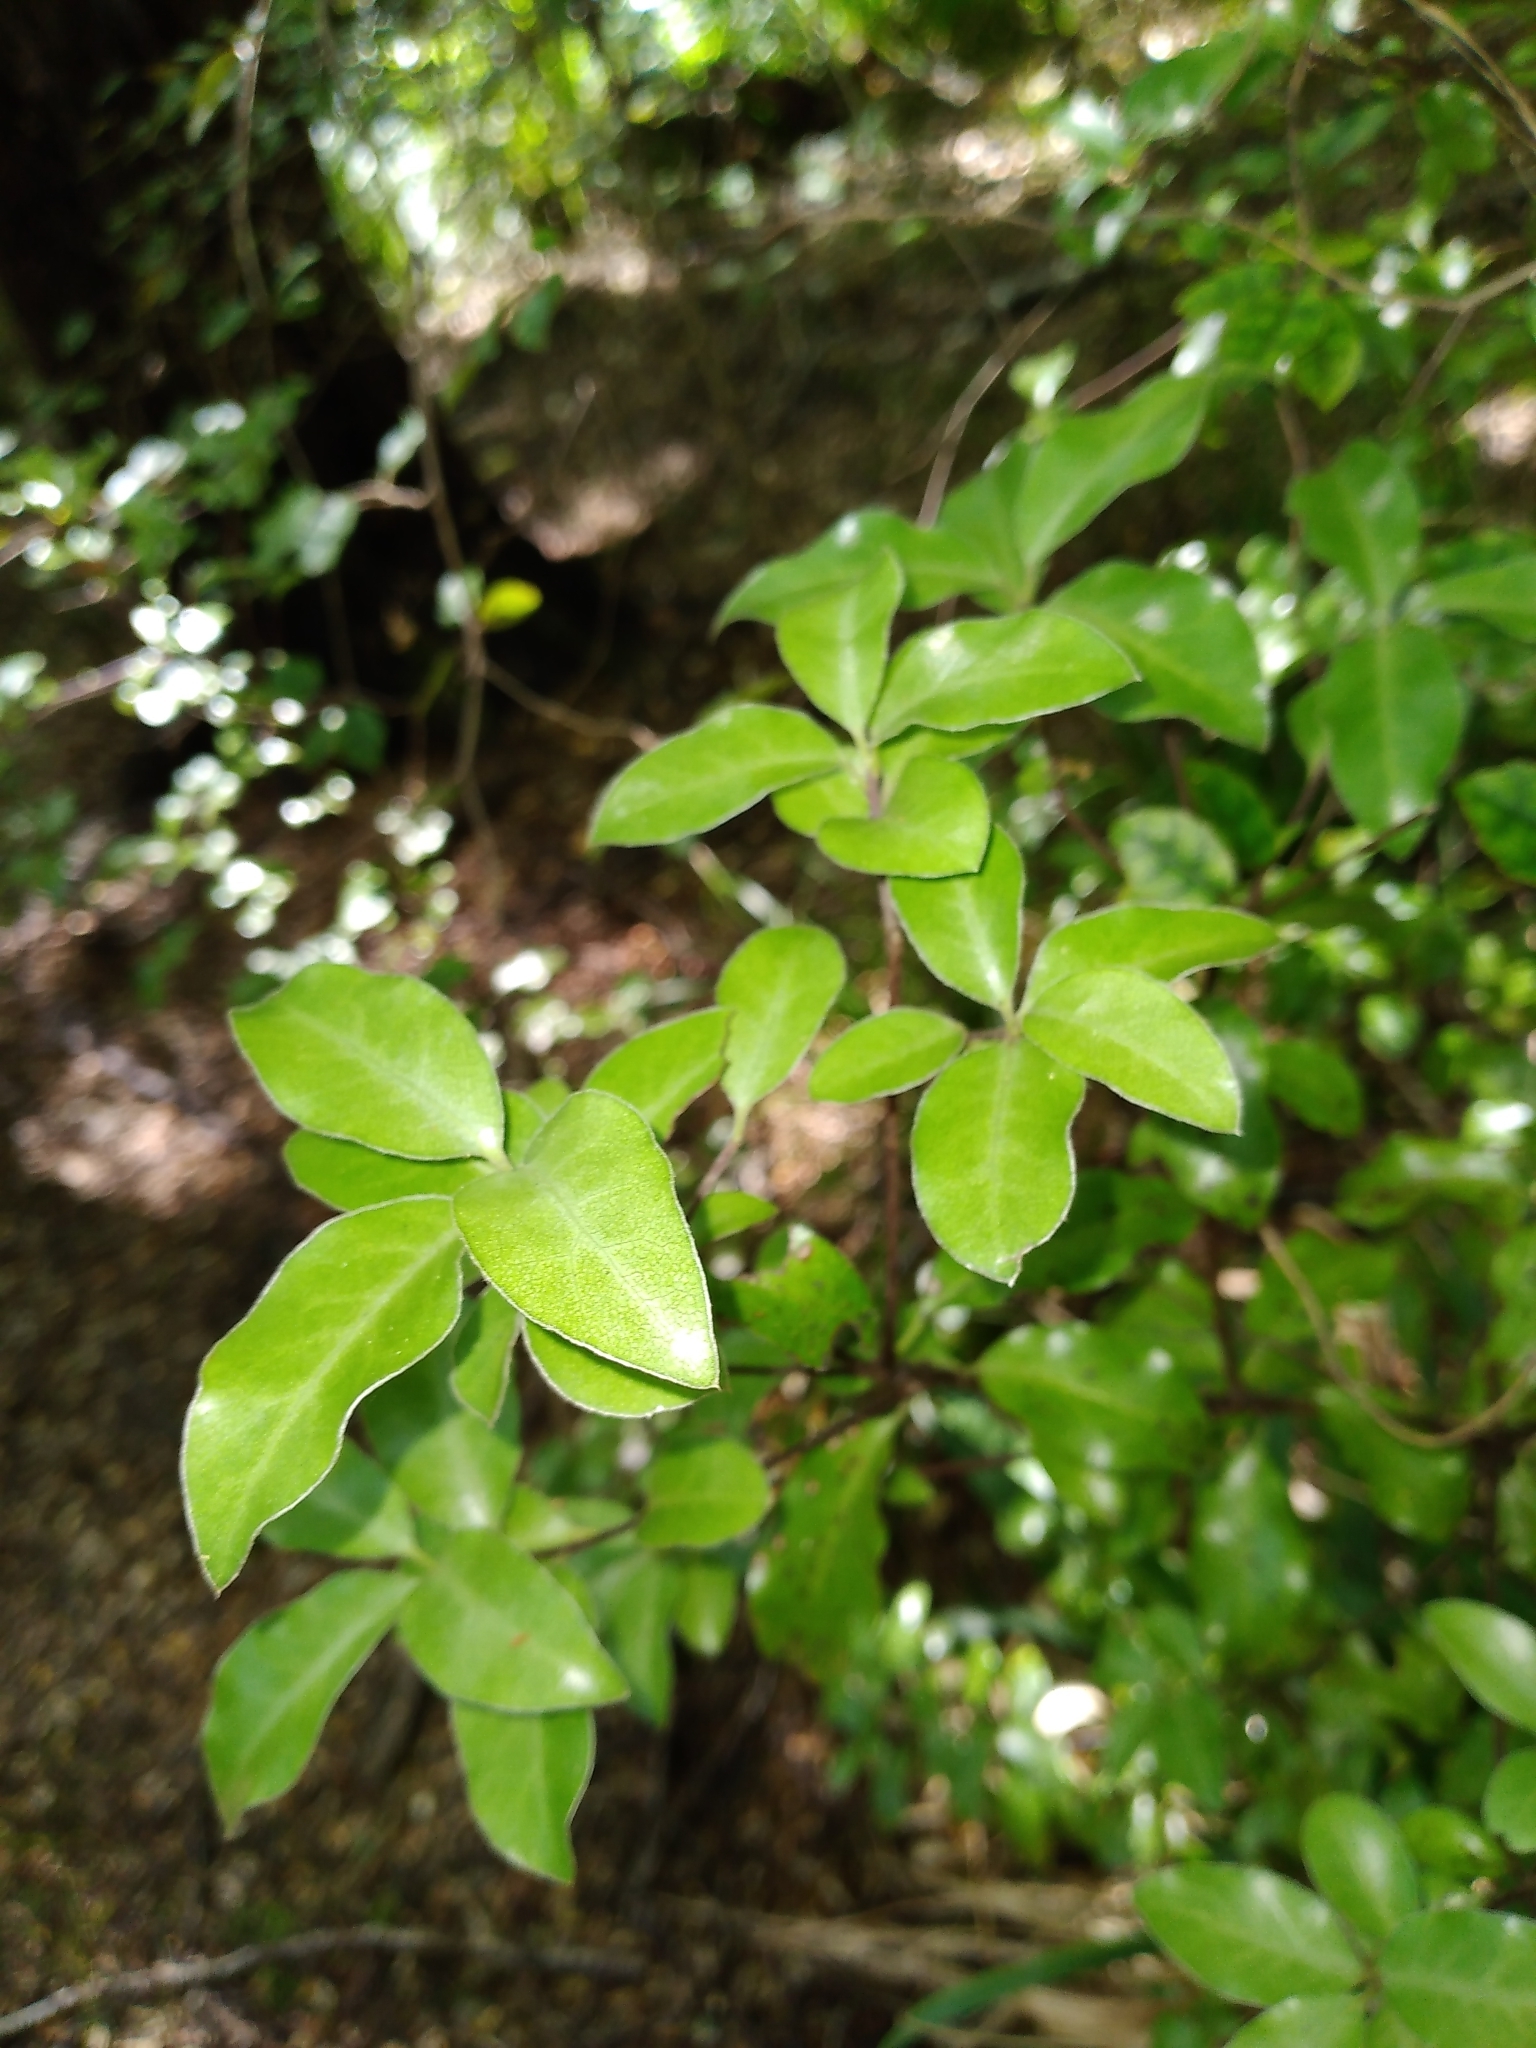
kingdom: Plantae
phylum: Tracheophyta
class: Magnoliopsida
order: Apiales
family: Pittosporaceae
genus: Pittosporum
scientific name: Pittosporum tenuifolium
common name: Kohuhu
